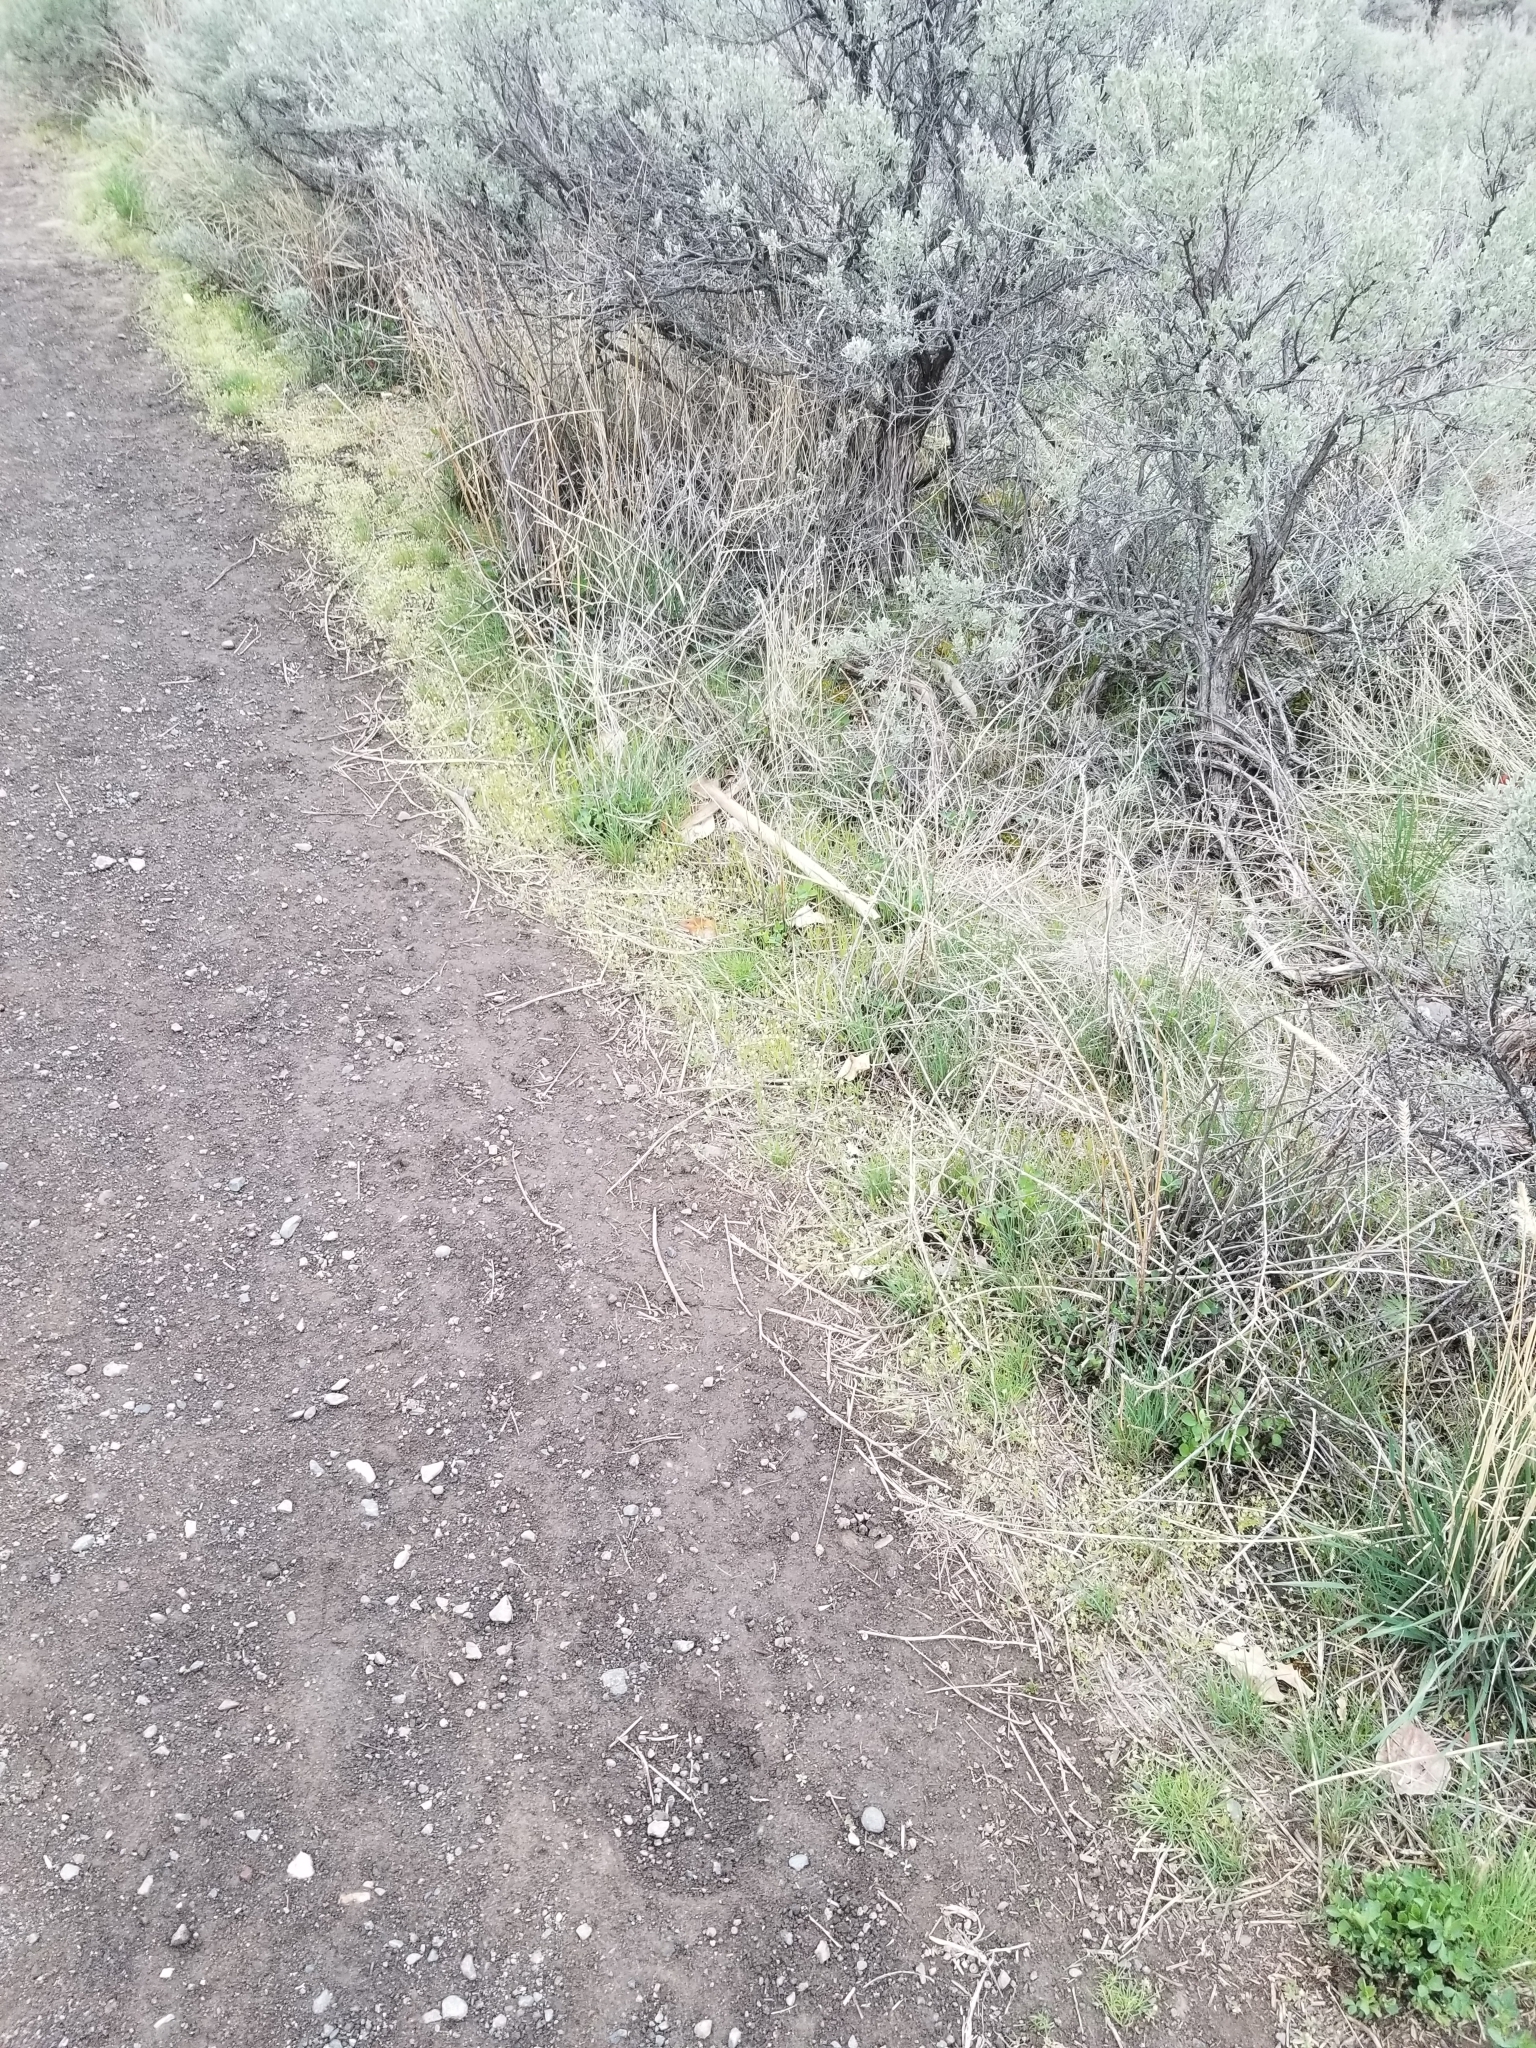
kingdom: Plantae
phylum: Tracheophyta
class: Magnoliopsida
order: Ranunculales
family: Ranunculaceae
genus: Ceratocephala
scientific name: Ceratocephala orthoceras
